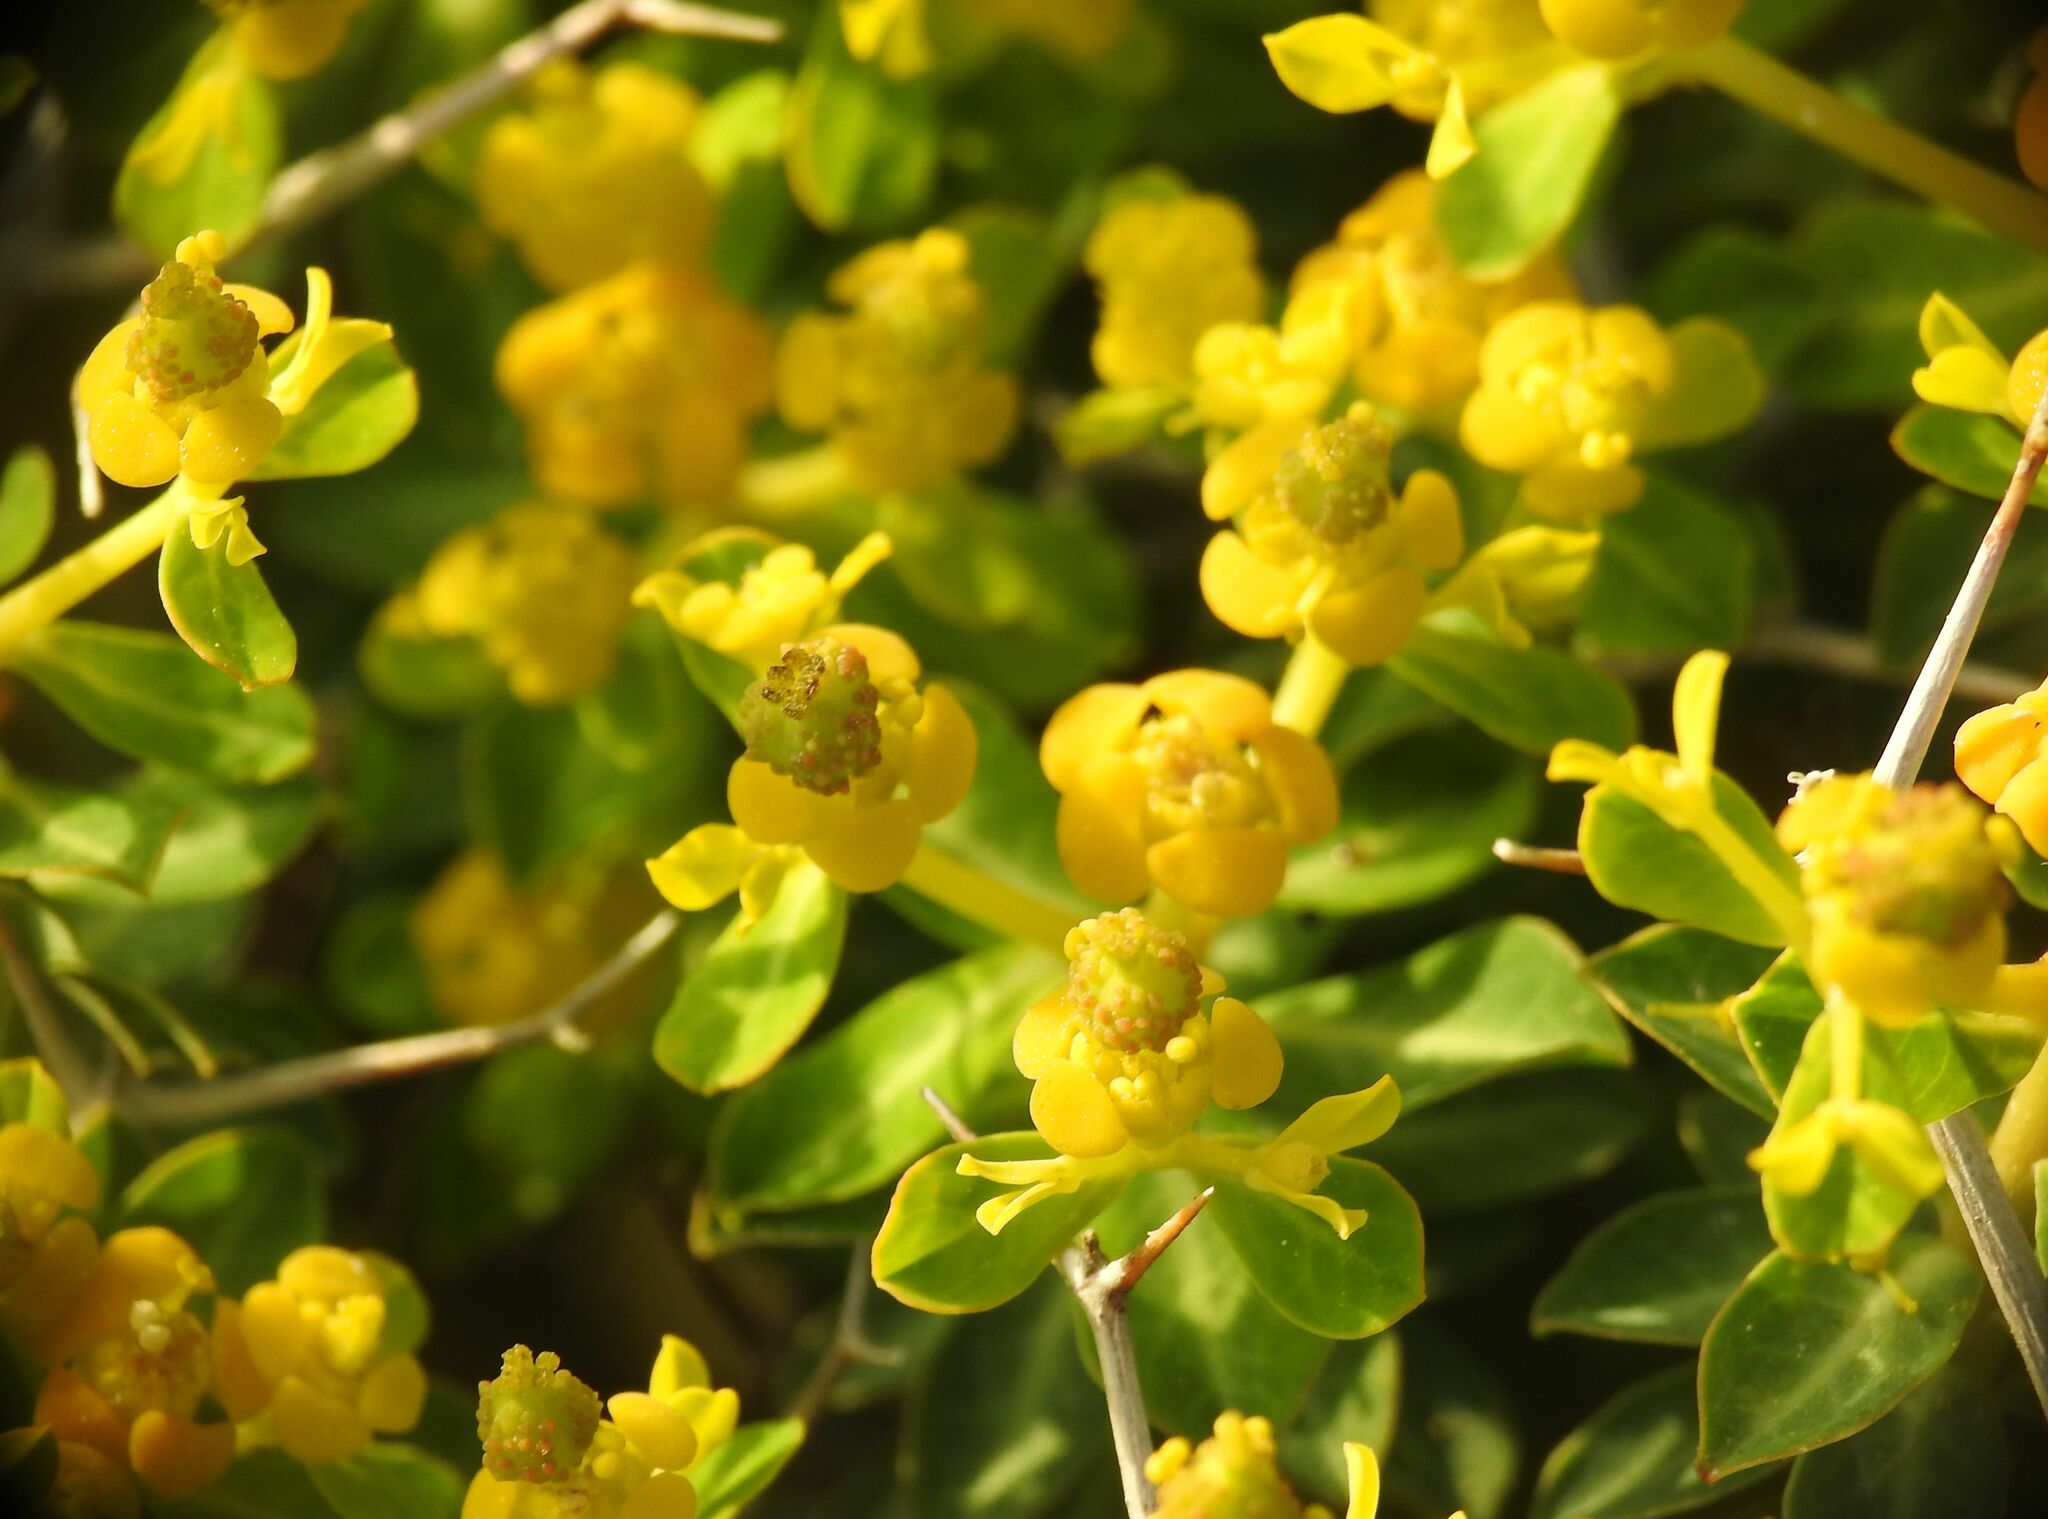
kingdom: Plantae
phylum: Tracheophyta
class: Magnoliopsida
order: Malpighiales
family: Euphorbiaceae
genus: Euphorbia
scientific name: Euphorbia acanthothamnos
